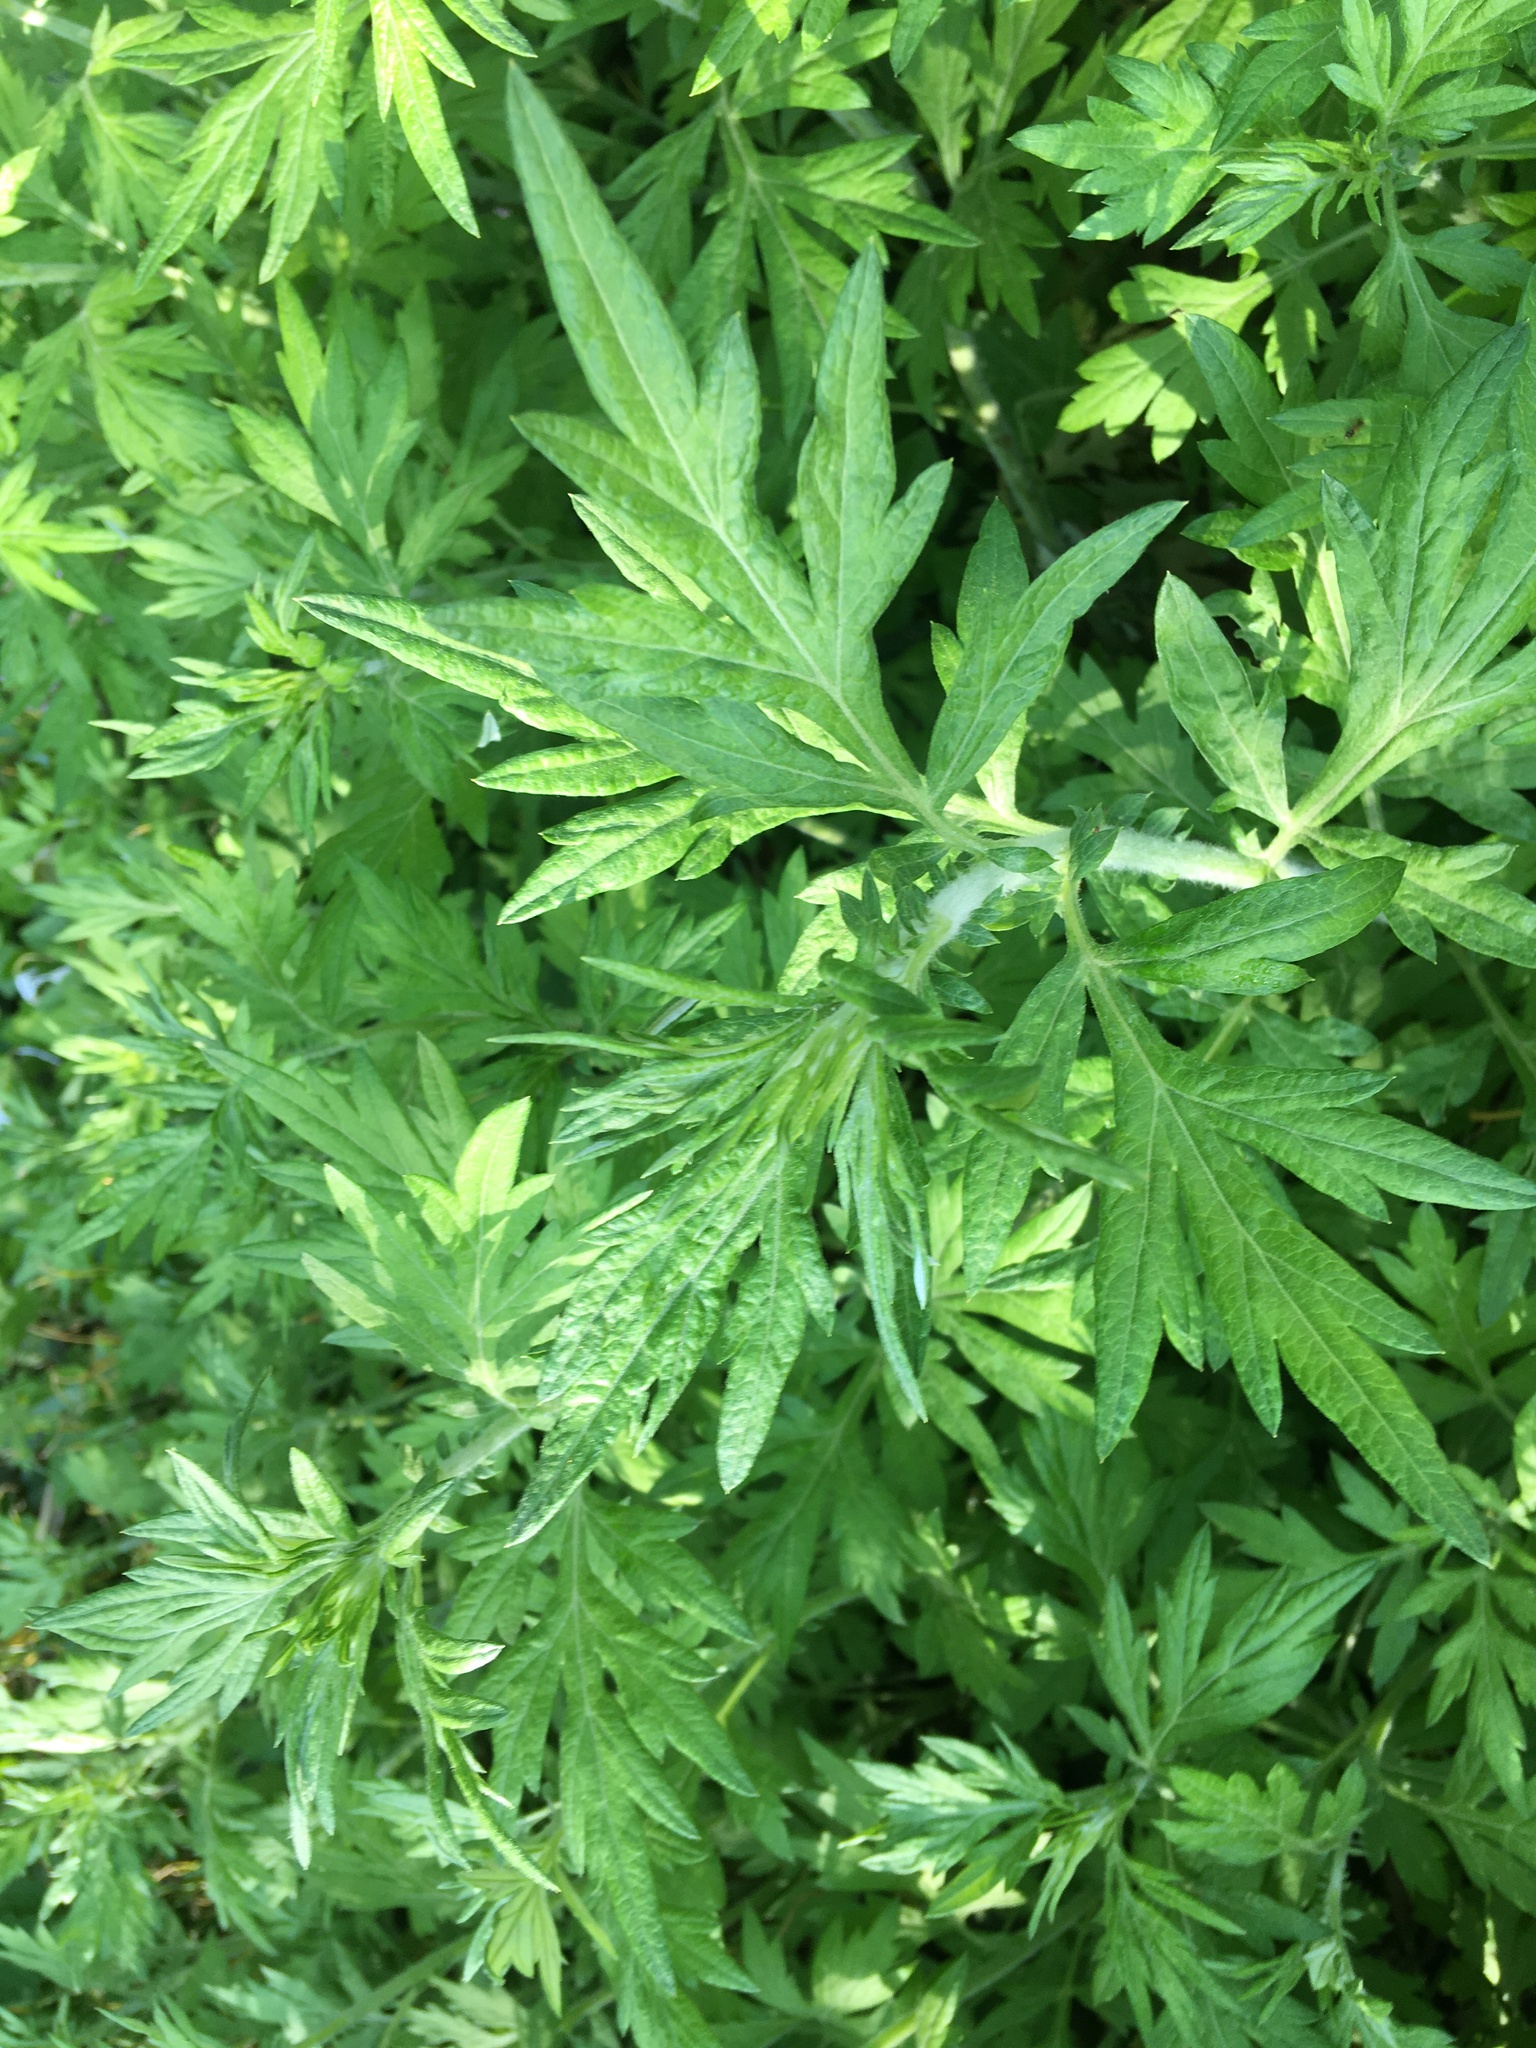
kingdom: Plantae
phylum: Tracheophyta
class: Magnoliopsida
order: Asterales
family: Asteraceae
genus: Artemisia
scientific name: Artemisia vulgaris
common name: Mugwort
